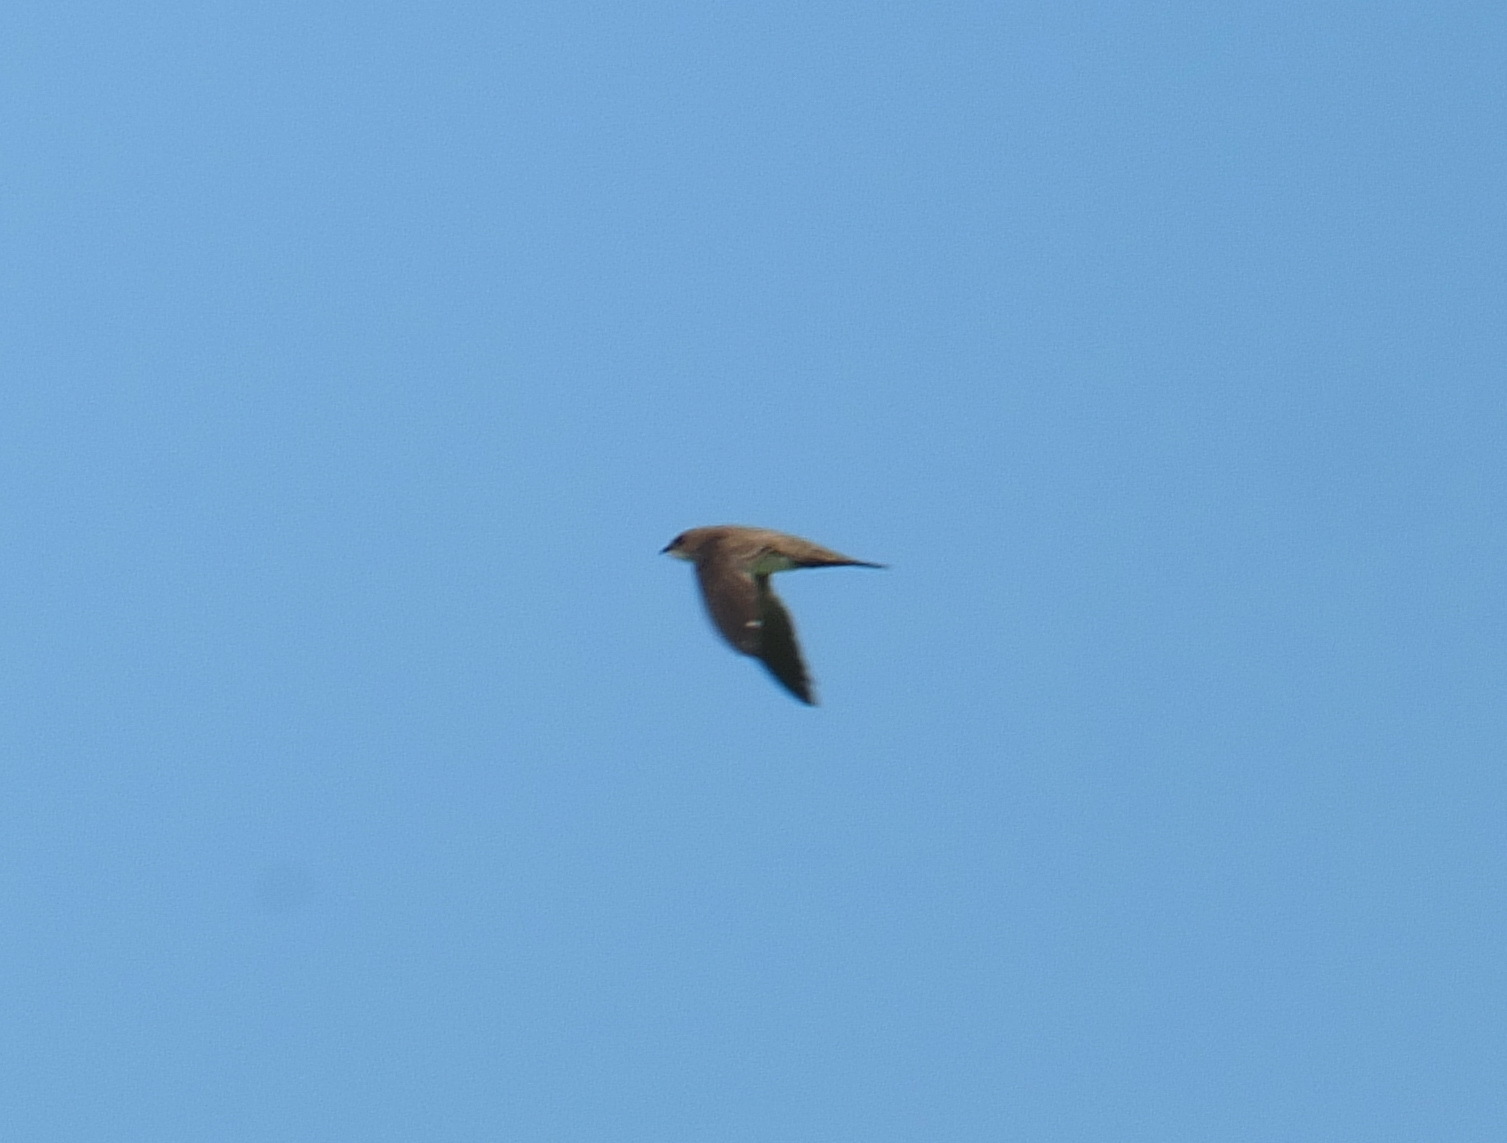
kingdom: Animalia
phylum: Chordata
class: Aves
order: Apodiformes
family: Apodidae
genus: Apus
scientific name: Apus pallidus
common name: Pallid swift
